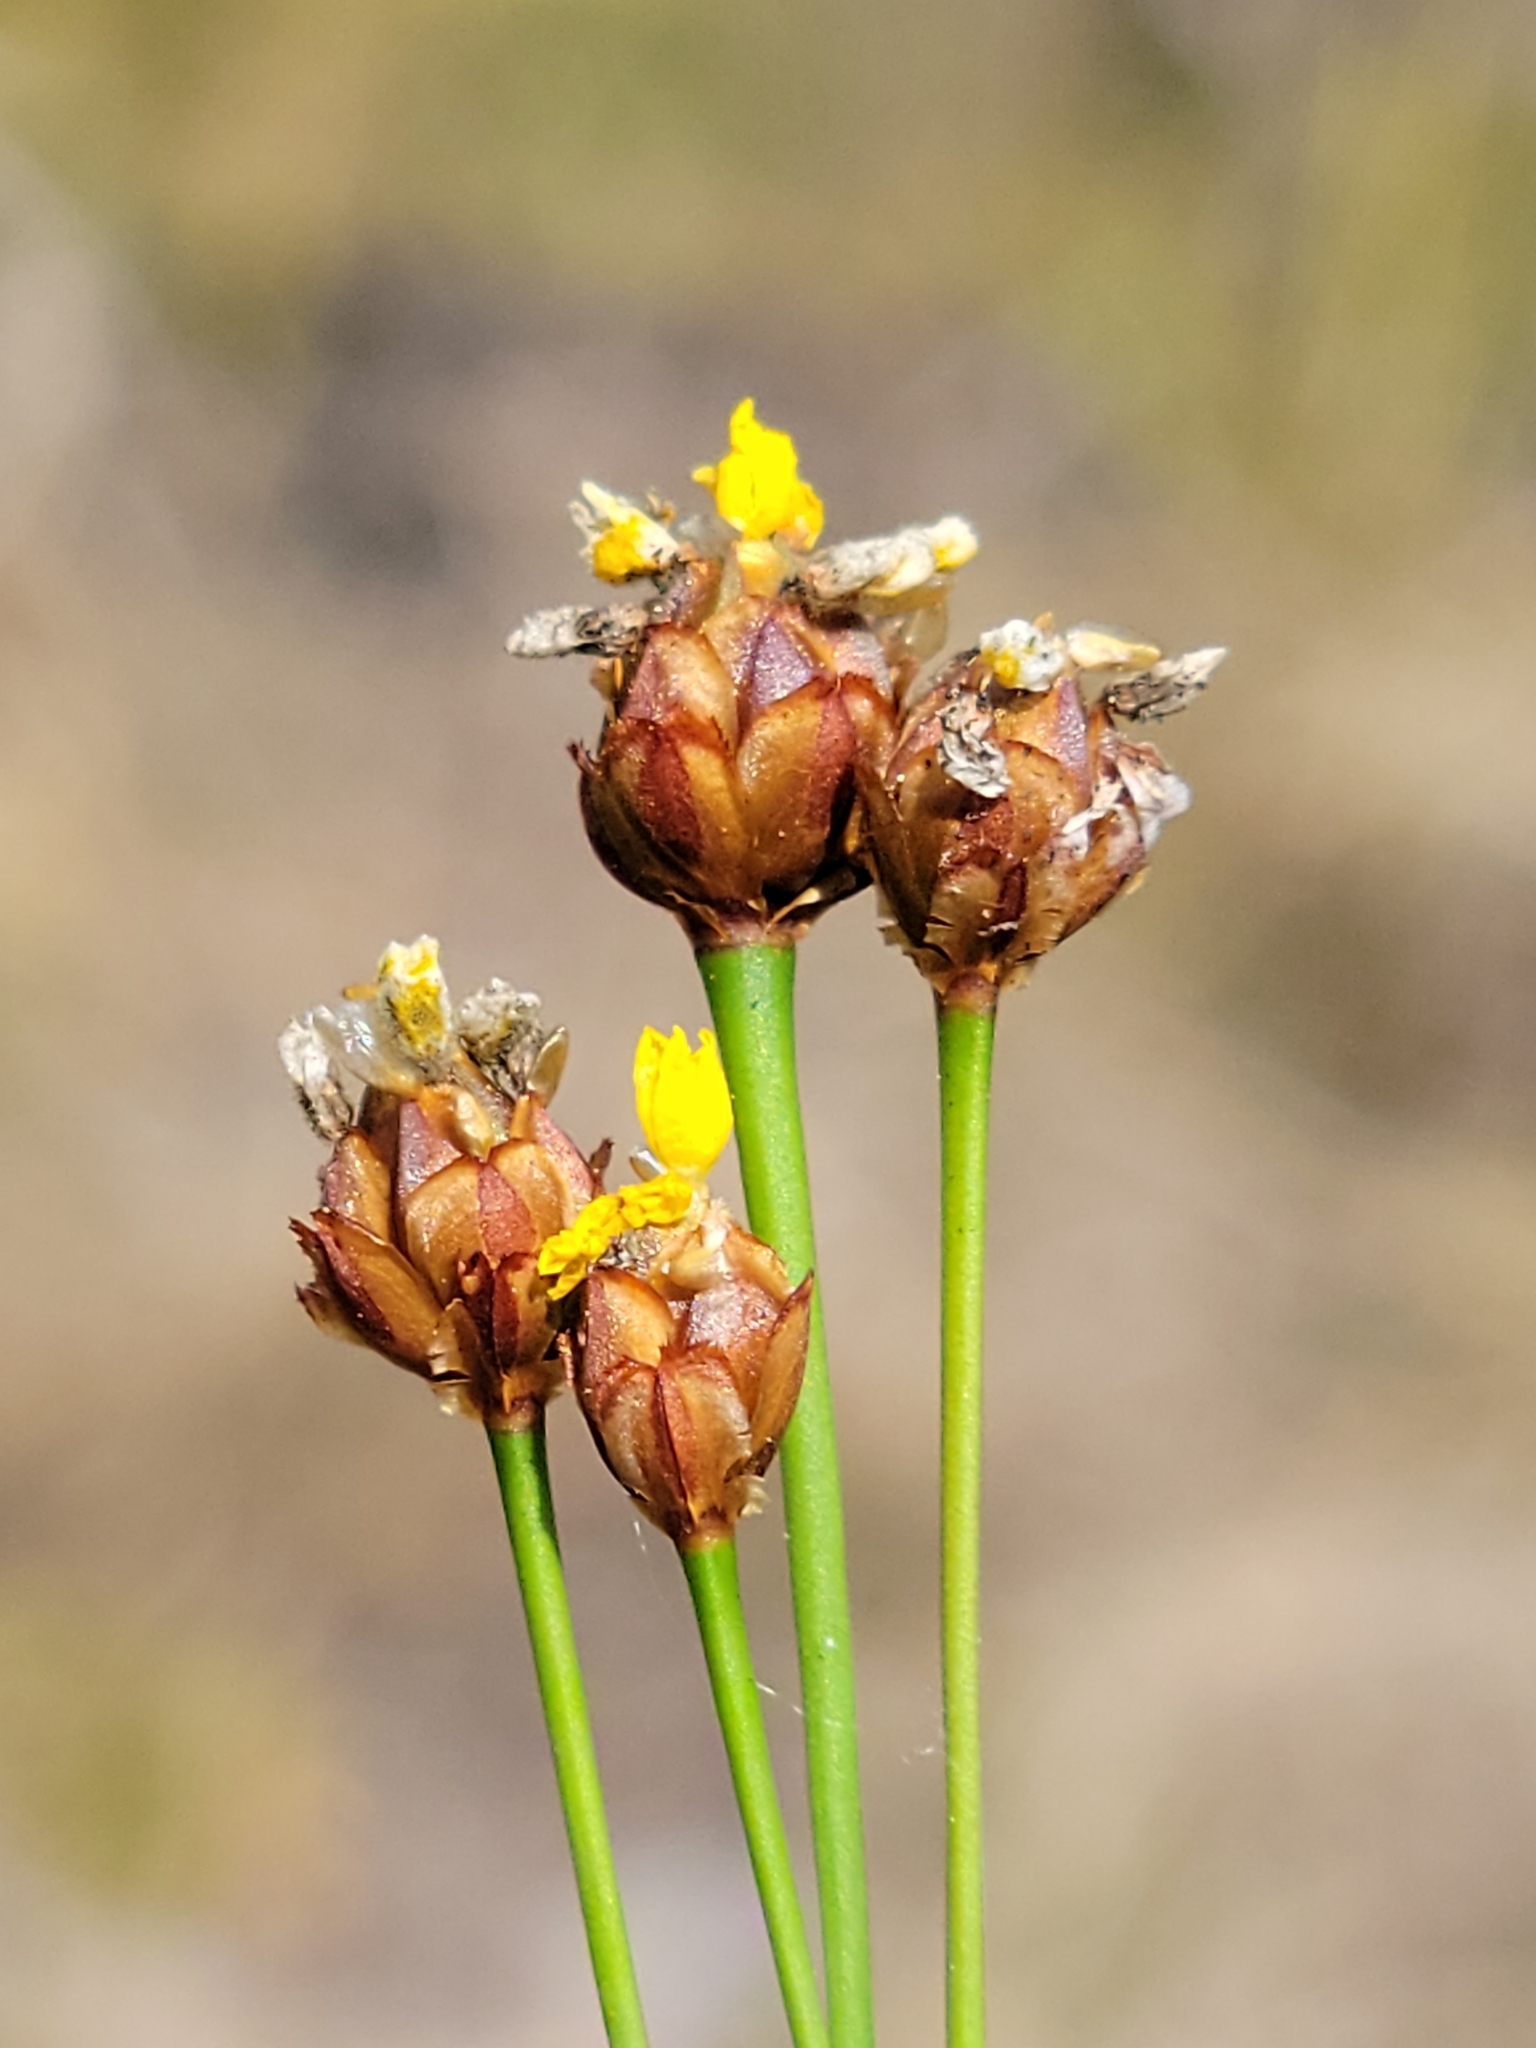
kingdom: Plantae
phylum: Tracheophyta
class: Liliopsida
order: Poales
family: Xyridaceae
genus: Xyris
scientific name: Xyris brevifolia
